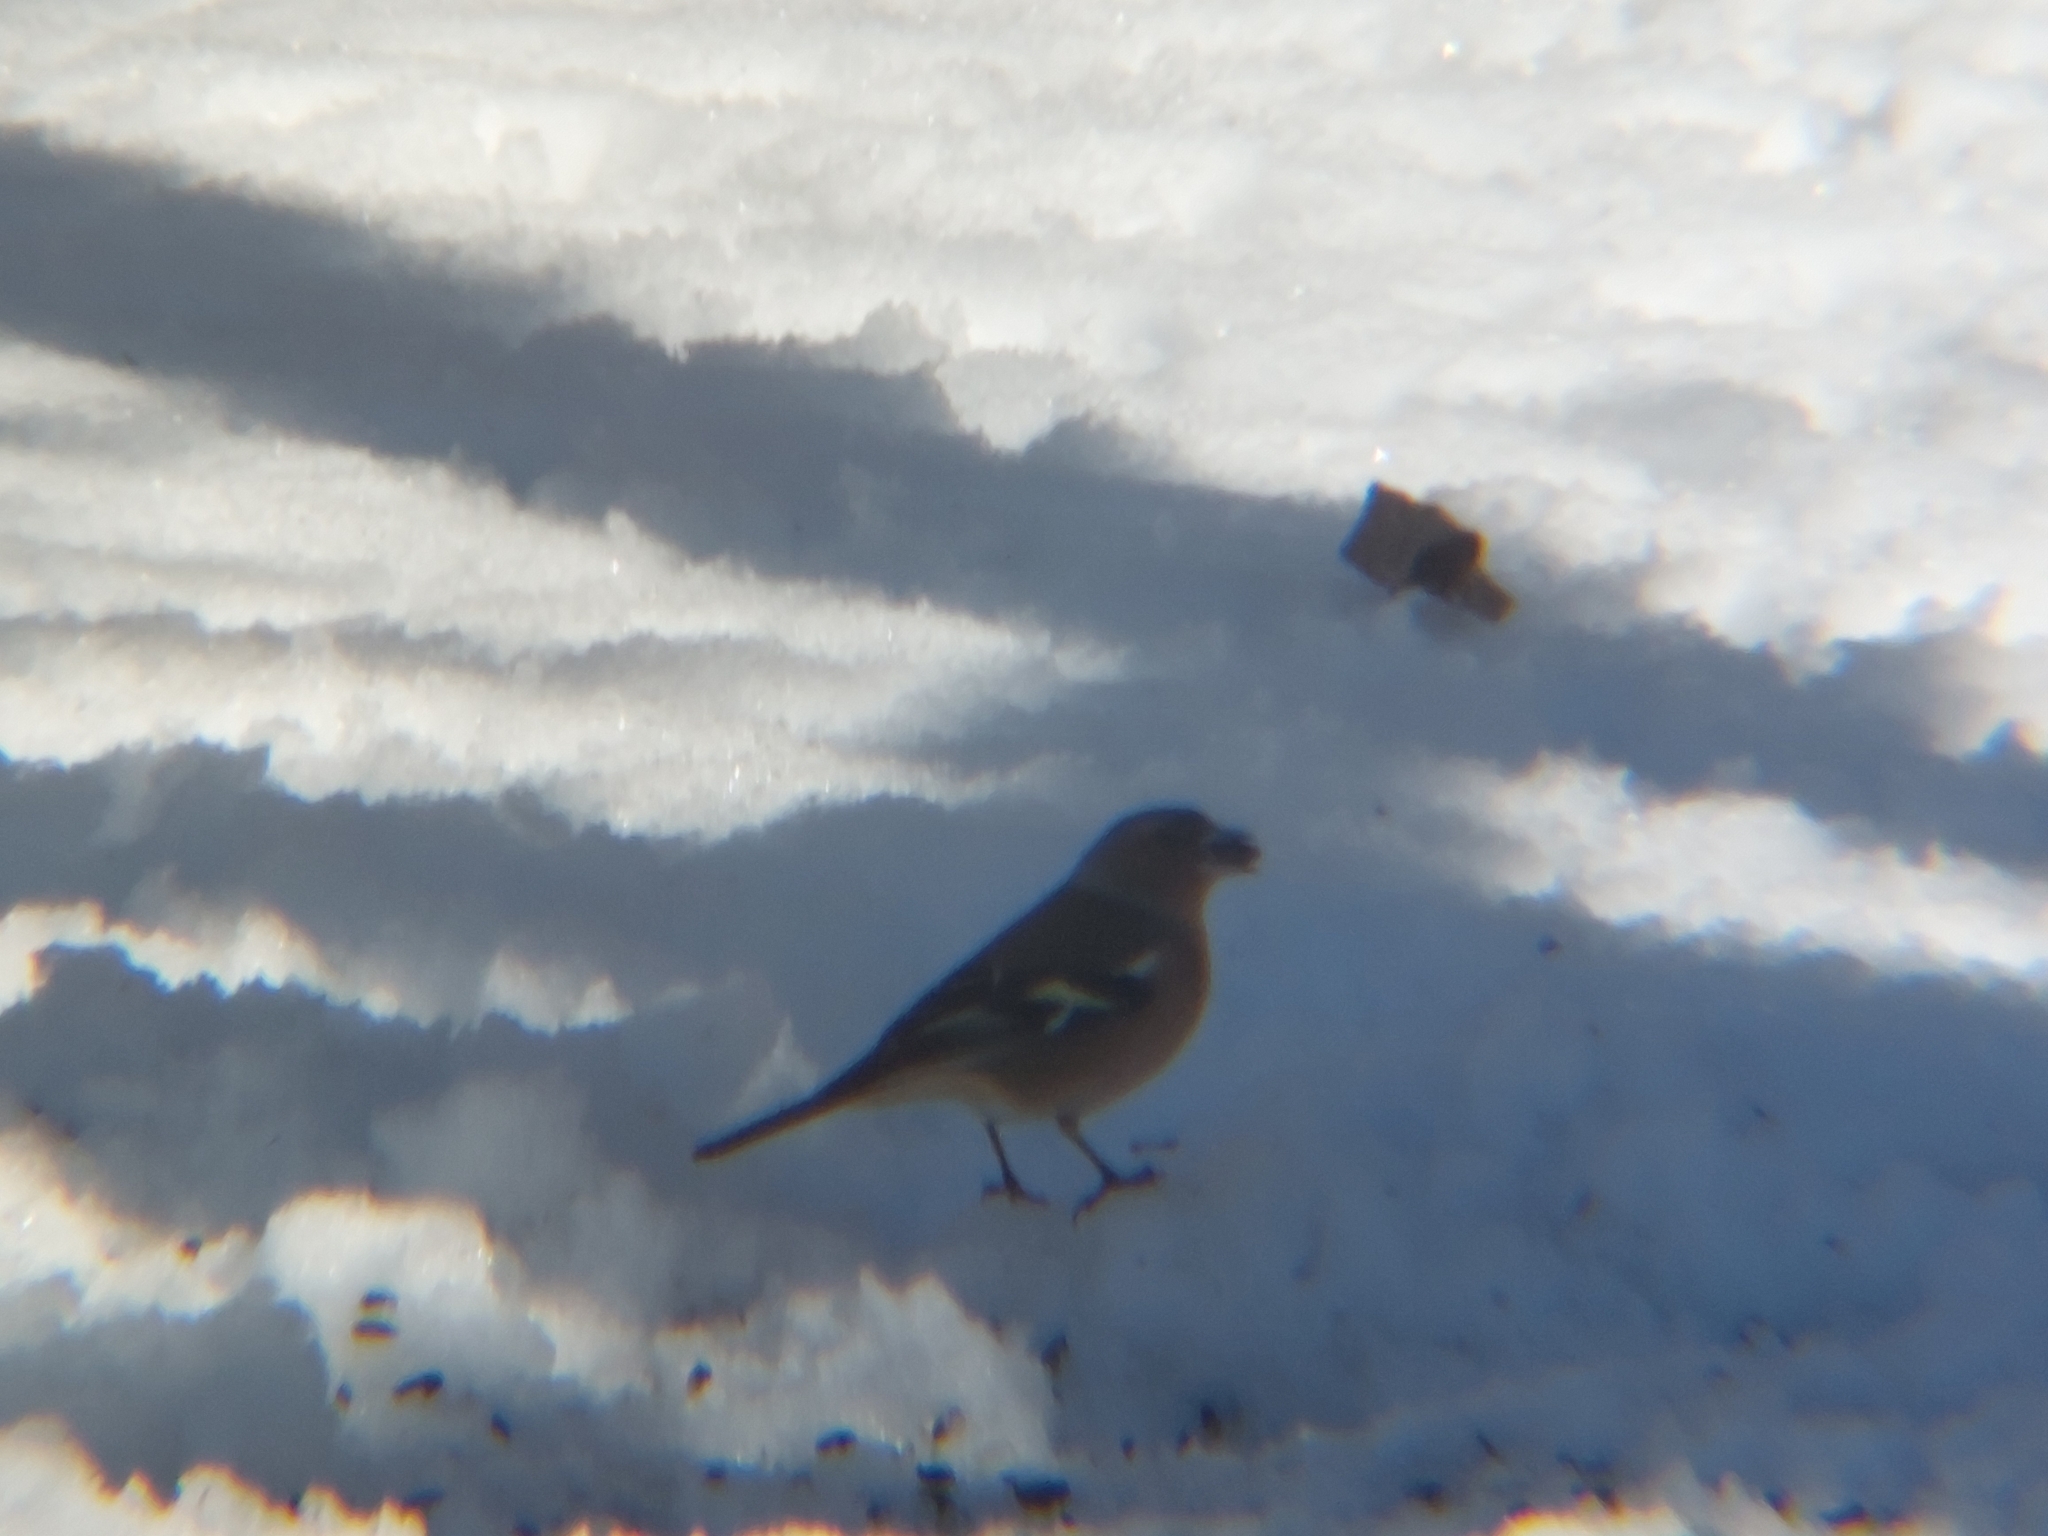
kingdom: Animalia
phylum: Chordata
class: Aves
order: Passeriformes
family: Fringillidae
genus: Fringilla
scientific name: Fringilla coelebs
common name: Common chaffinch
